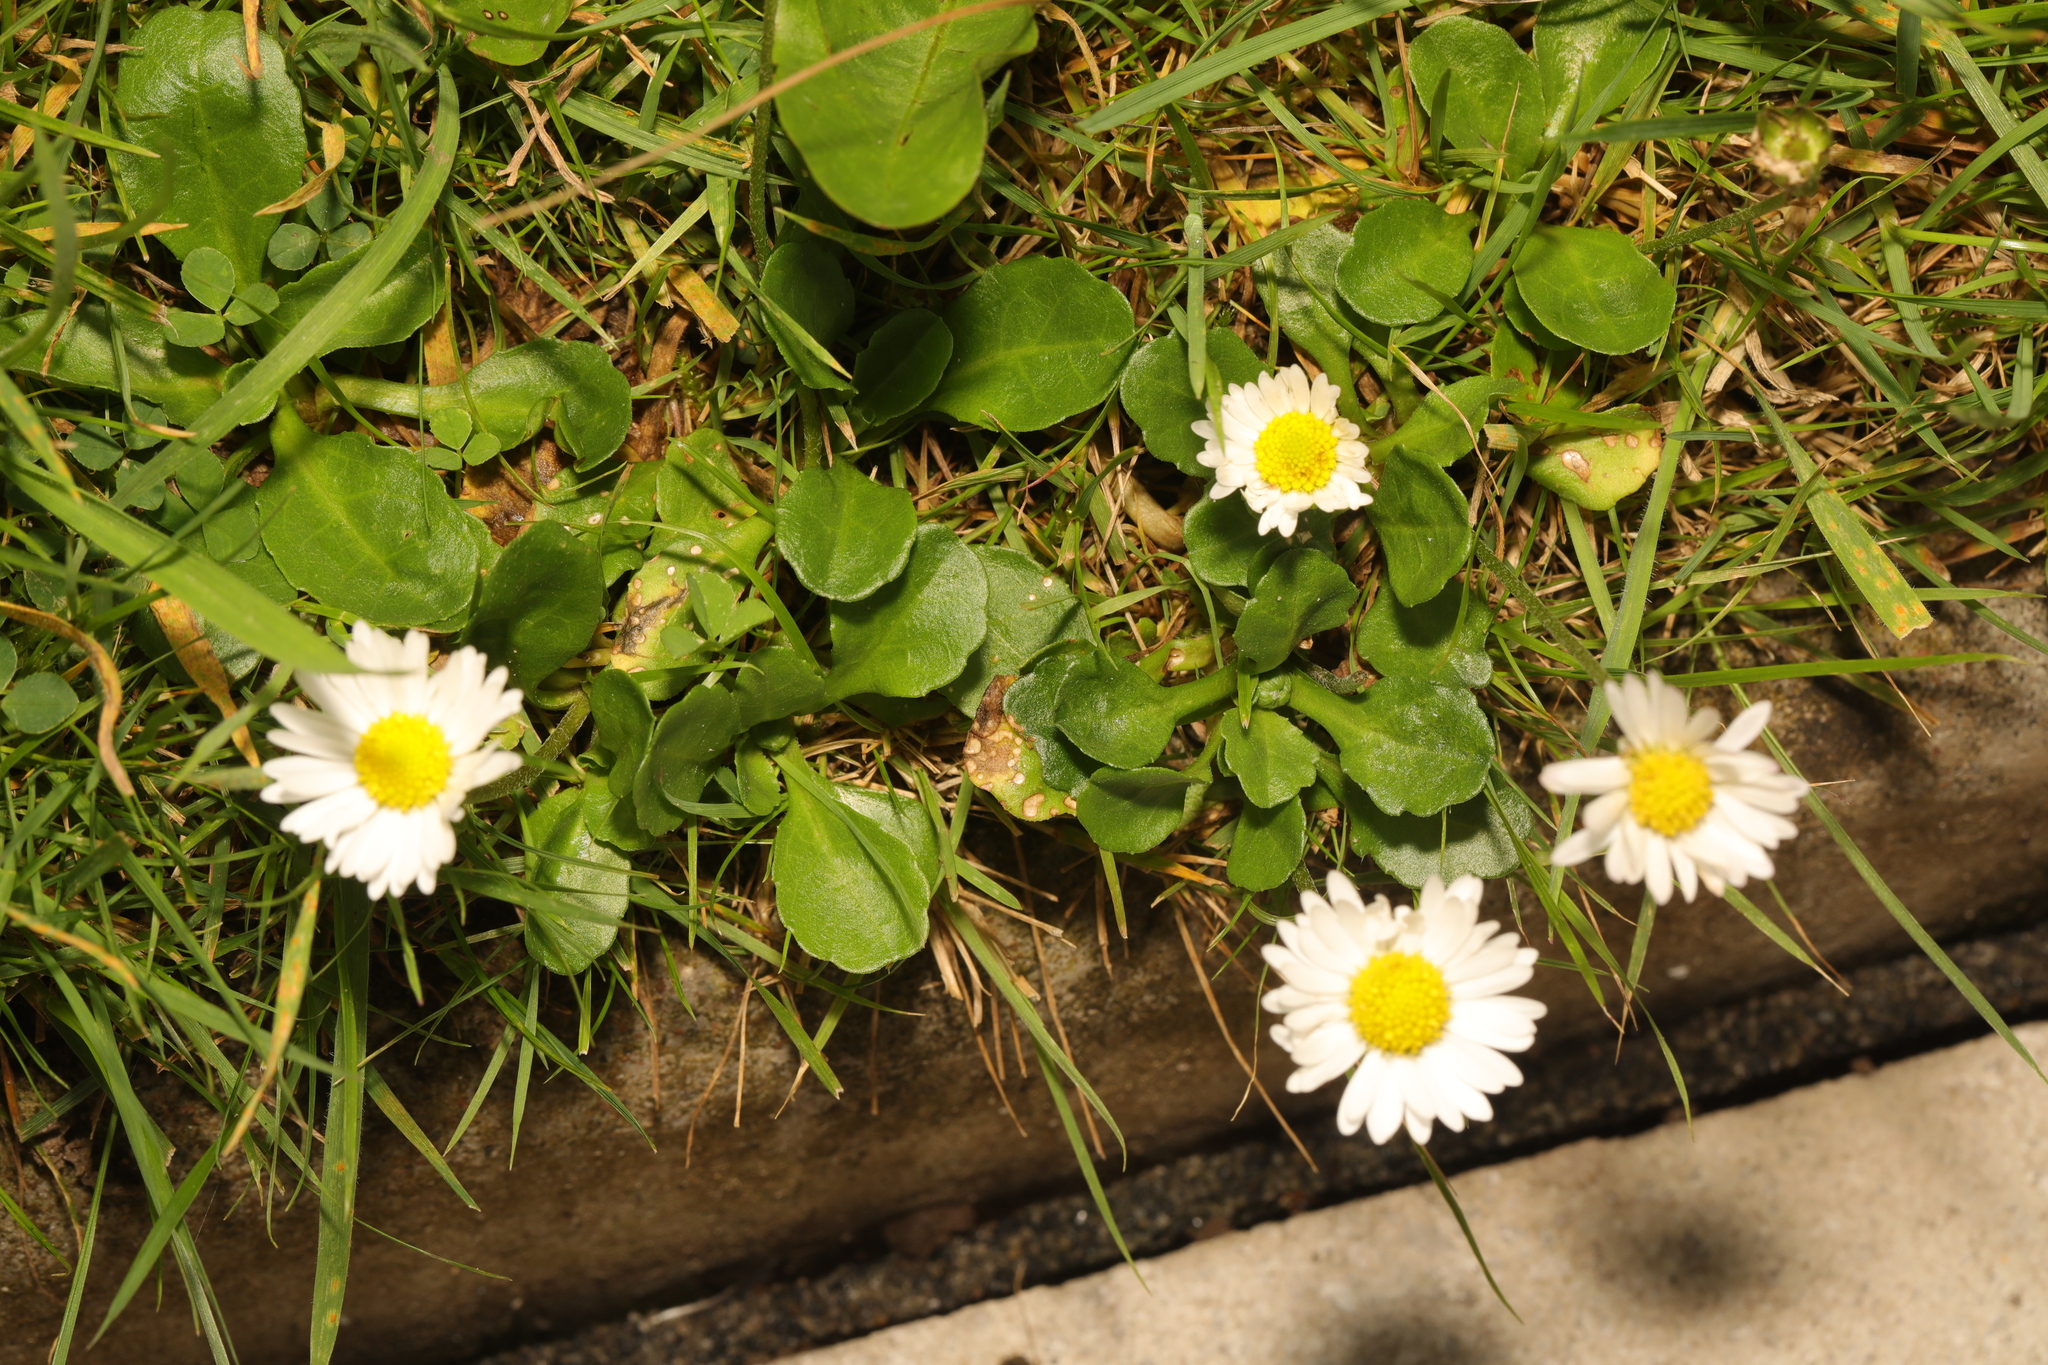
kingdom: Plantae
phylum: Tracheophyta
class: Magnoliopsida
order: Asterales
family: Asteraceae
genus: Bellis
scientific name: Bellis perennis
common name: Lawndaisy
